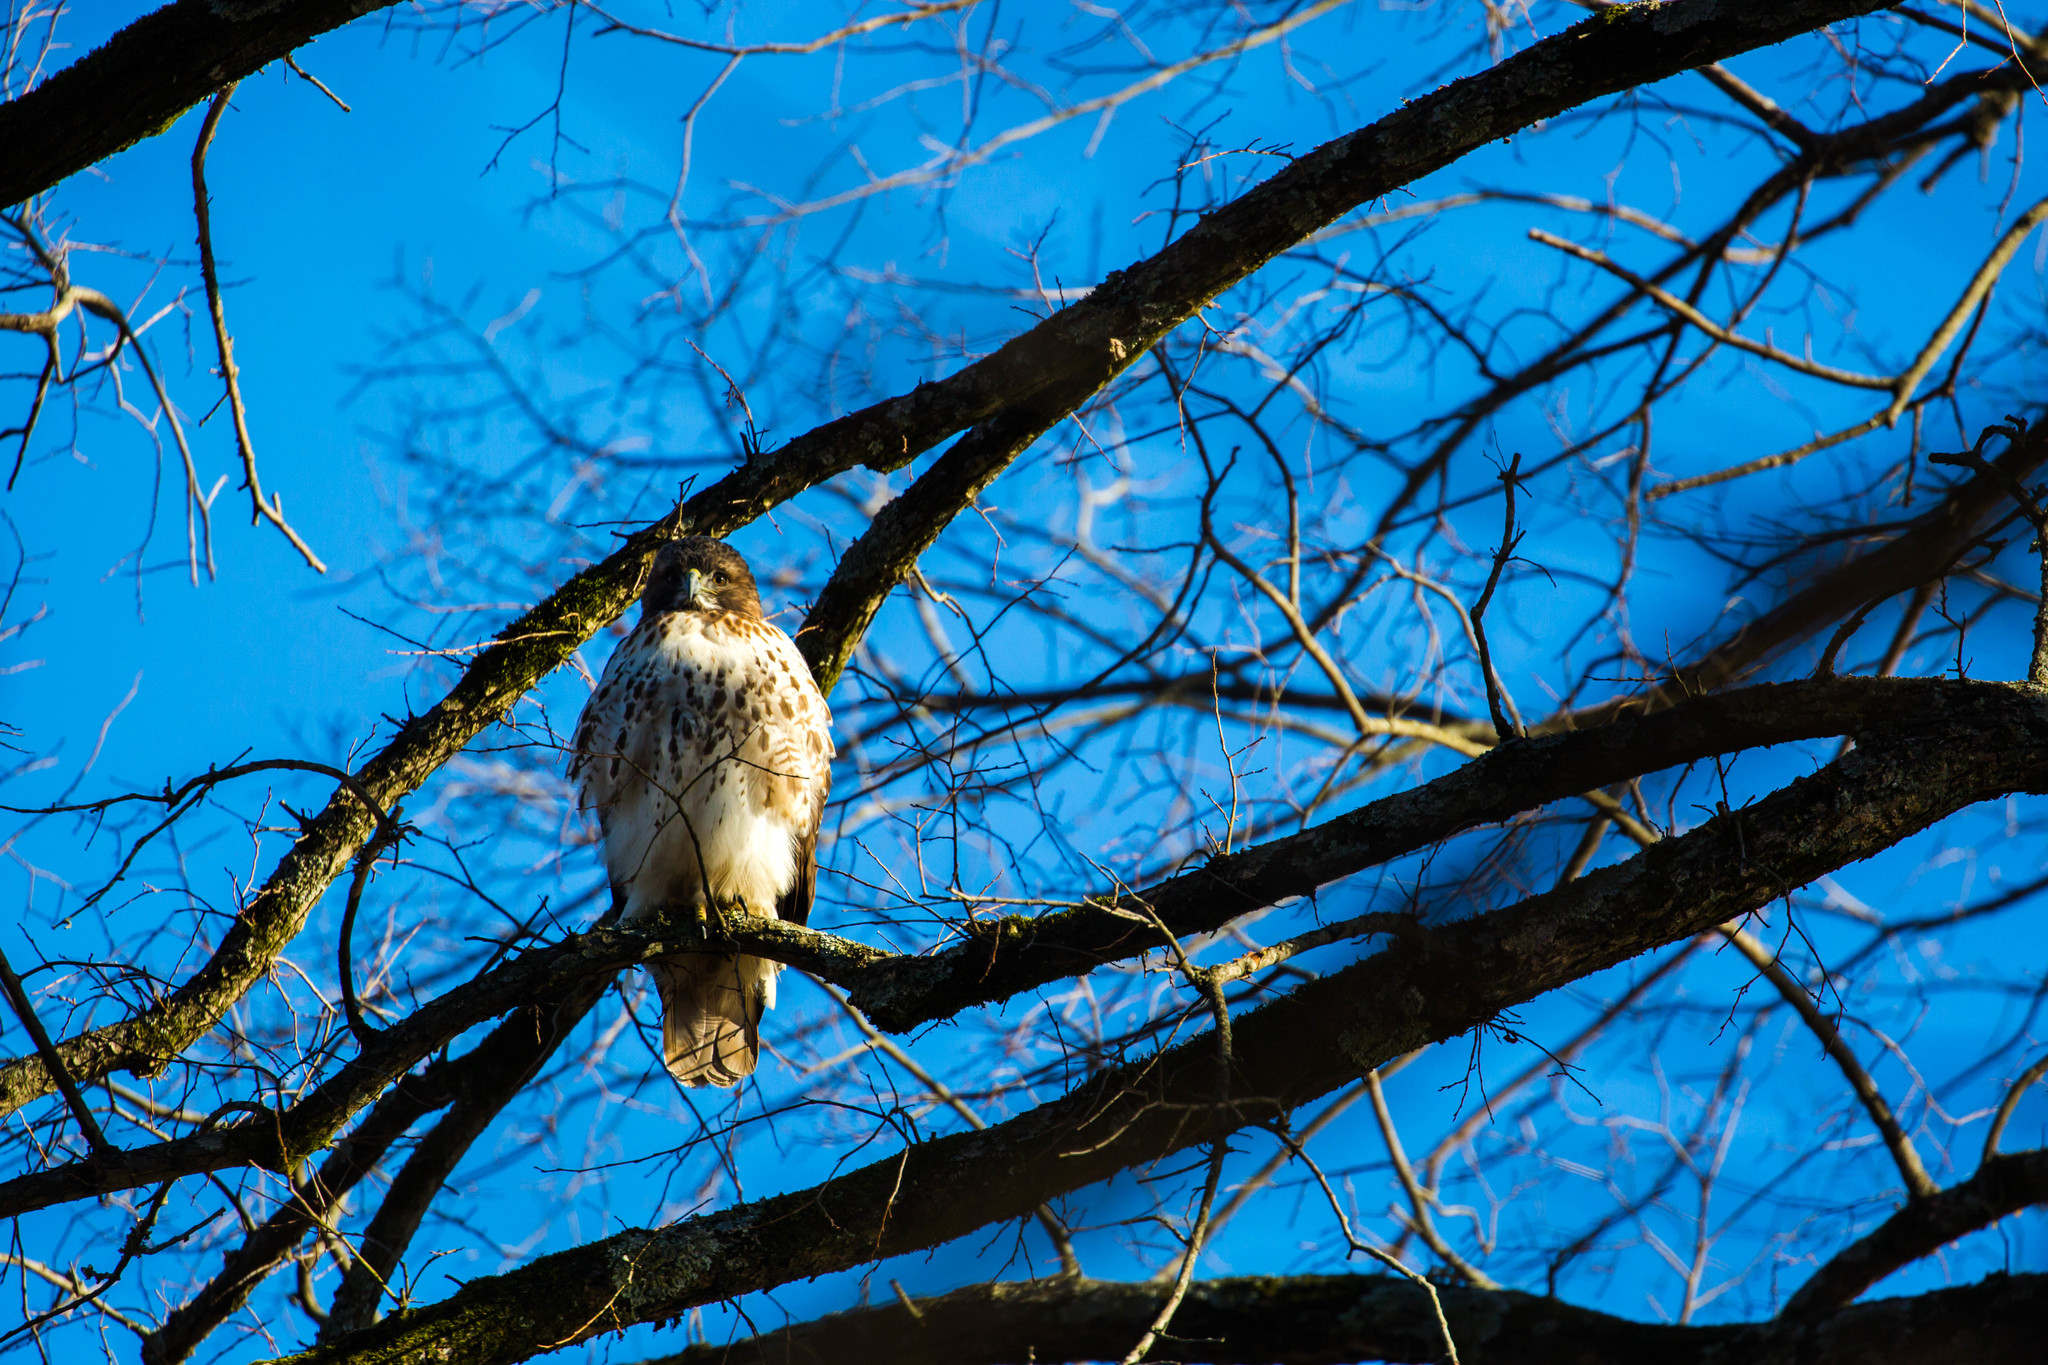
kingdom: Animalia
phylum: Chordata
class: Aves
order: Accipitriformes
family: Accipitridae
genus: Buteo
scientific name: Buteo jamaicensis
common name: Red-tailed hawk
